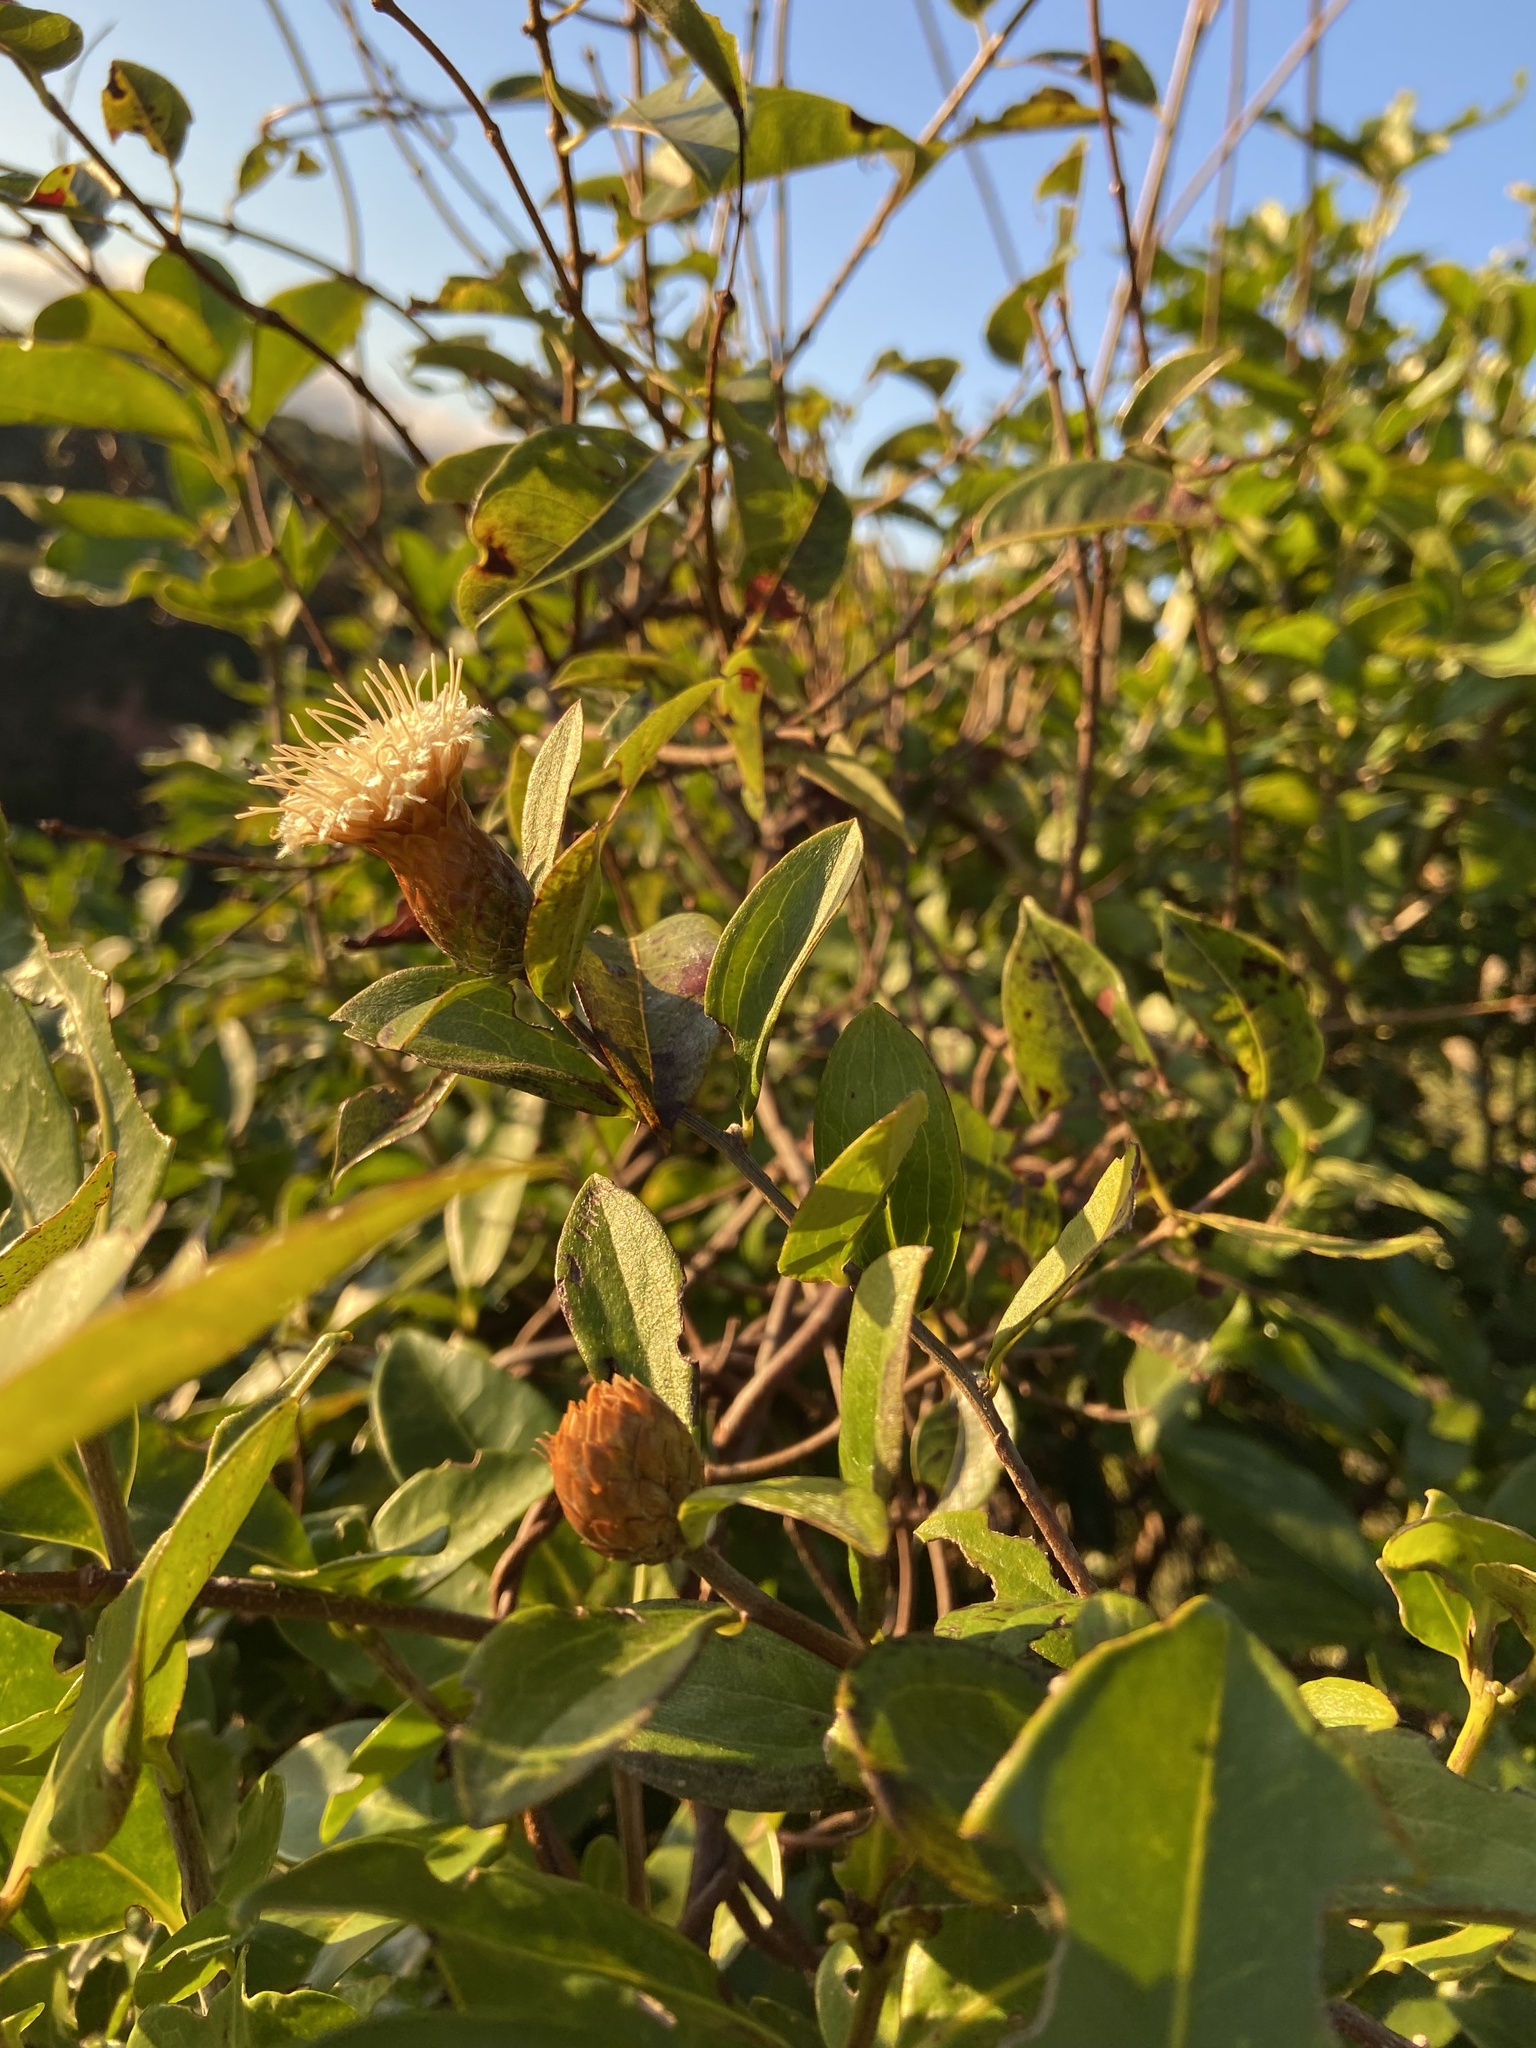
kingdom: Plantae
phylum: Tracheophyta
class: Magnoliopsida
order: Asterales
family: Asteraceae
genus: Dasyphyllum
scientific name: Dasyphyllum sprengelianum
